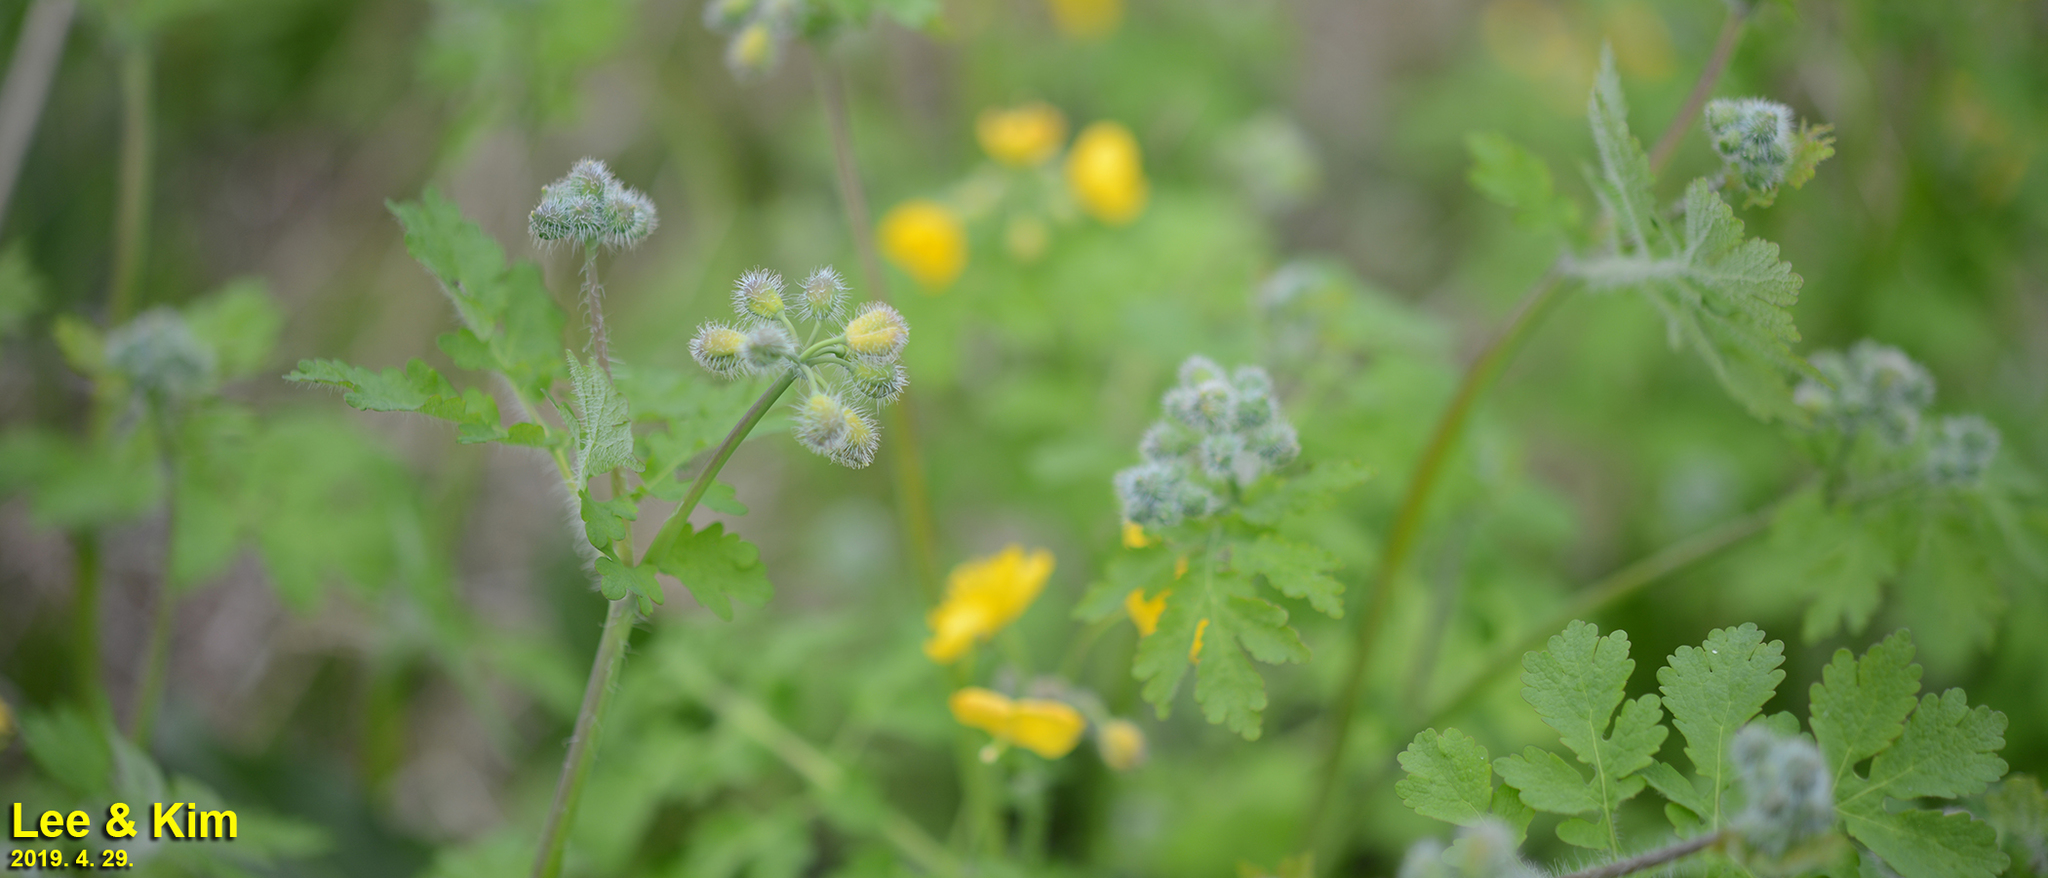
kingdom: Plantae
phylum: Tracheophyta
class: Magnoliopsida
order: Ranunculales
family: Papaveraceae
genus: Chelidonium
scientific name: Chelidonium majus
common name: Greater celandine
